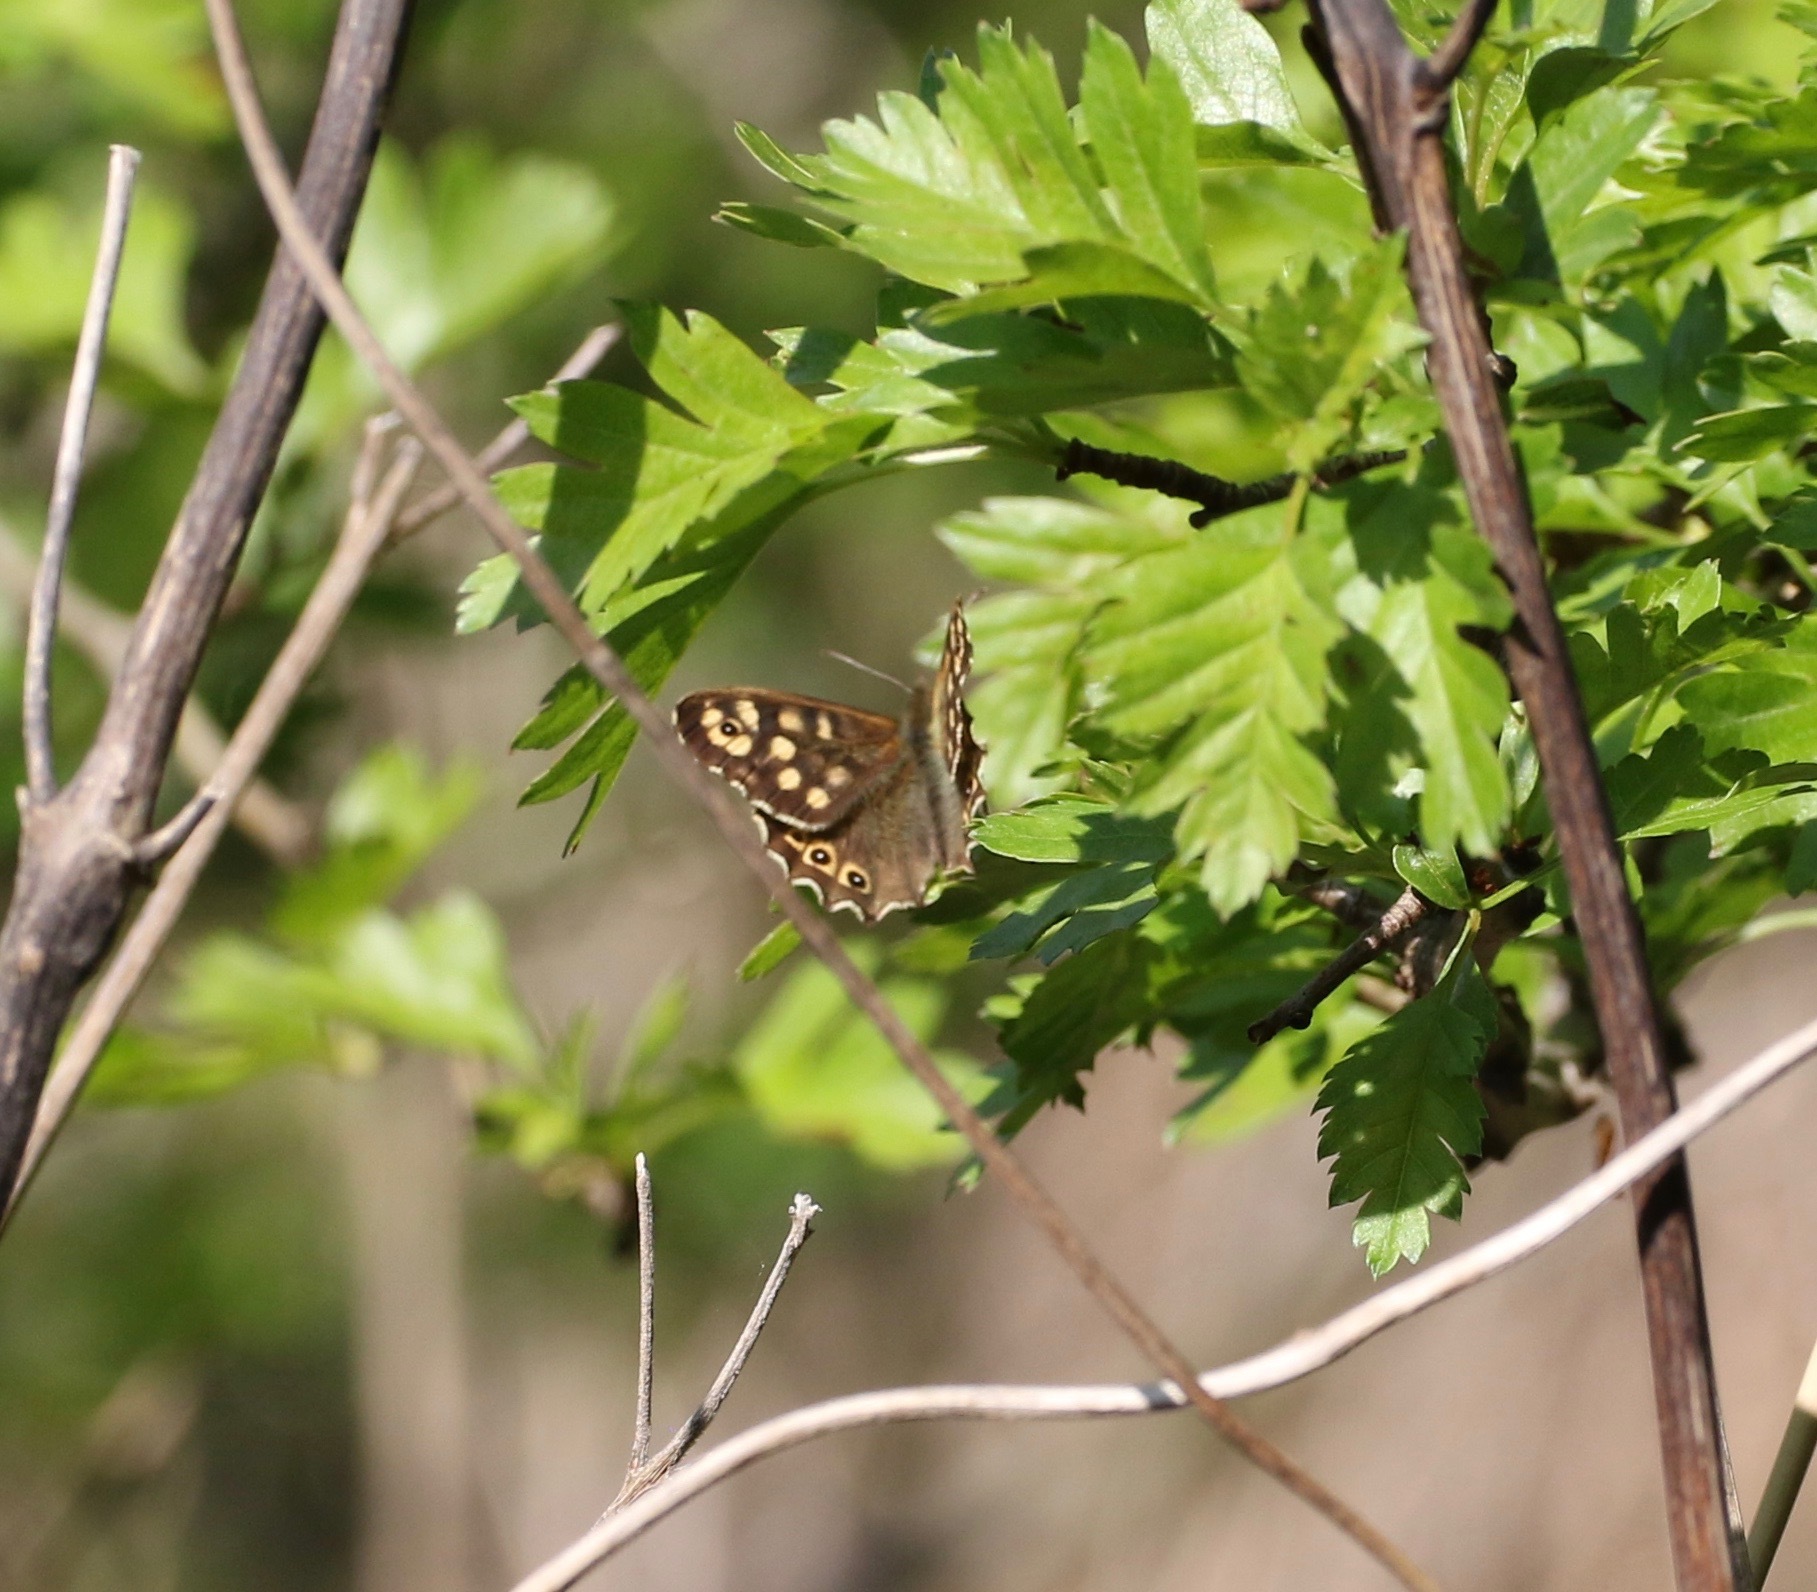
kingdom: Animalia
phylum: Arthropoda
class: Insecta
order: Lepidoptera
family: Nymphalidae
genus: Pararge
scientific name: Pararge aegeria
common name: Speckled wood
